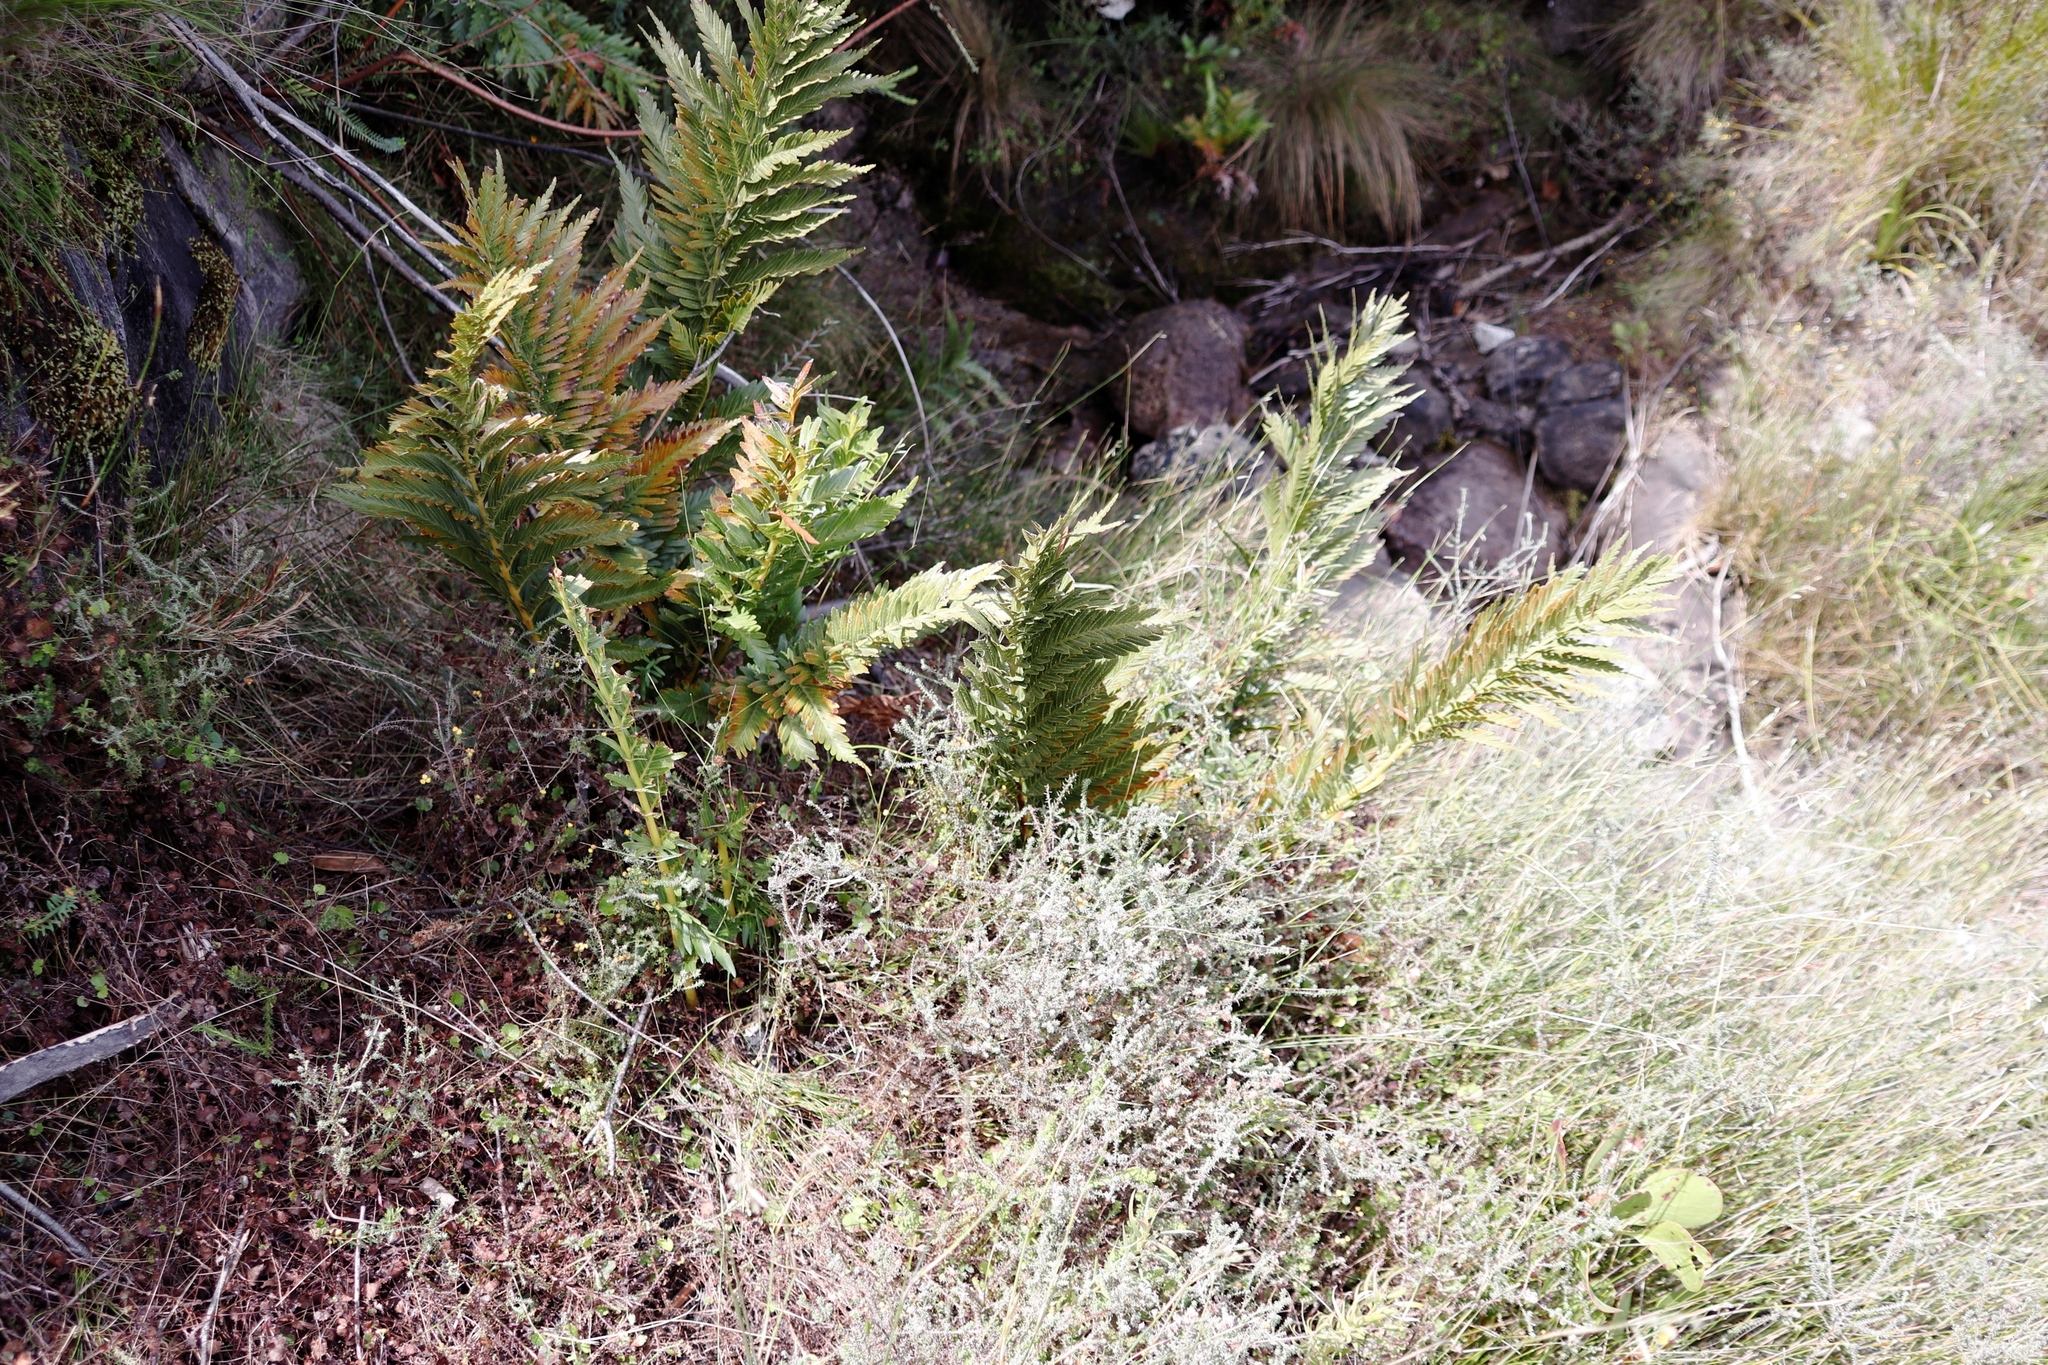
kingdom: Plantae
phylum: Tracheophyta
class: Polypodiopsida
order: Osmundales
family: Osmundaceae
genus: Todea
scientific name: Todea barbara
